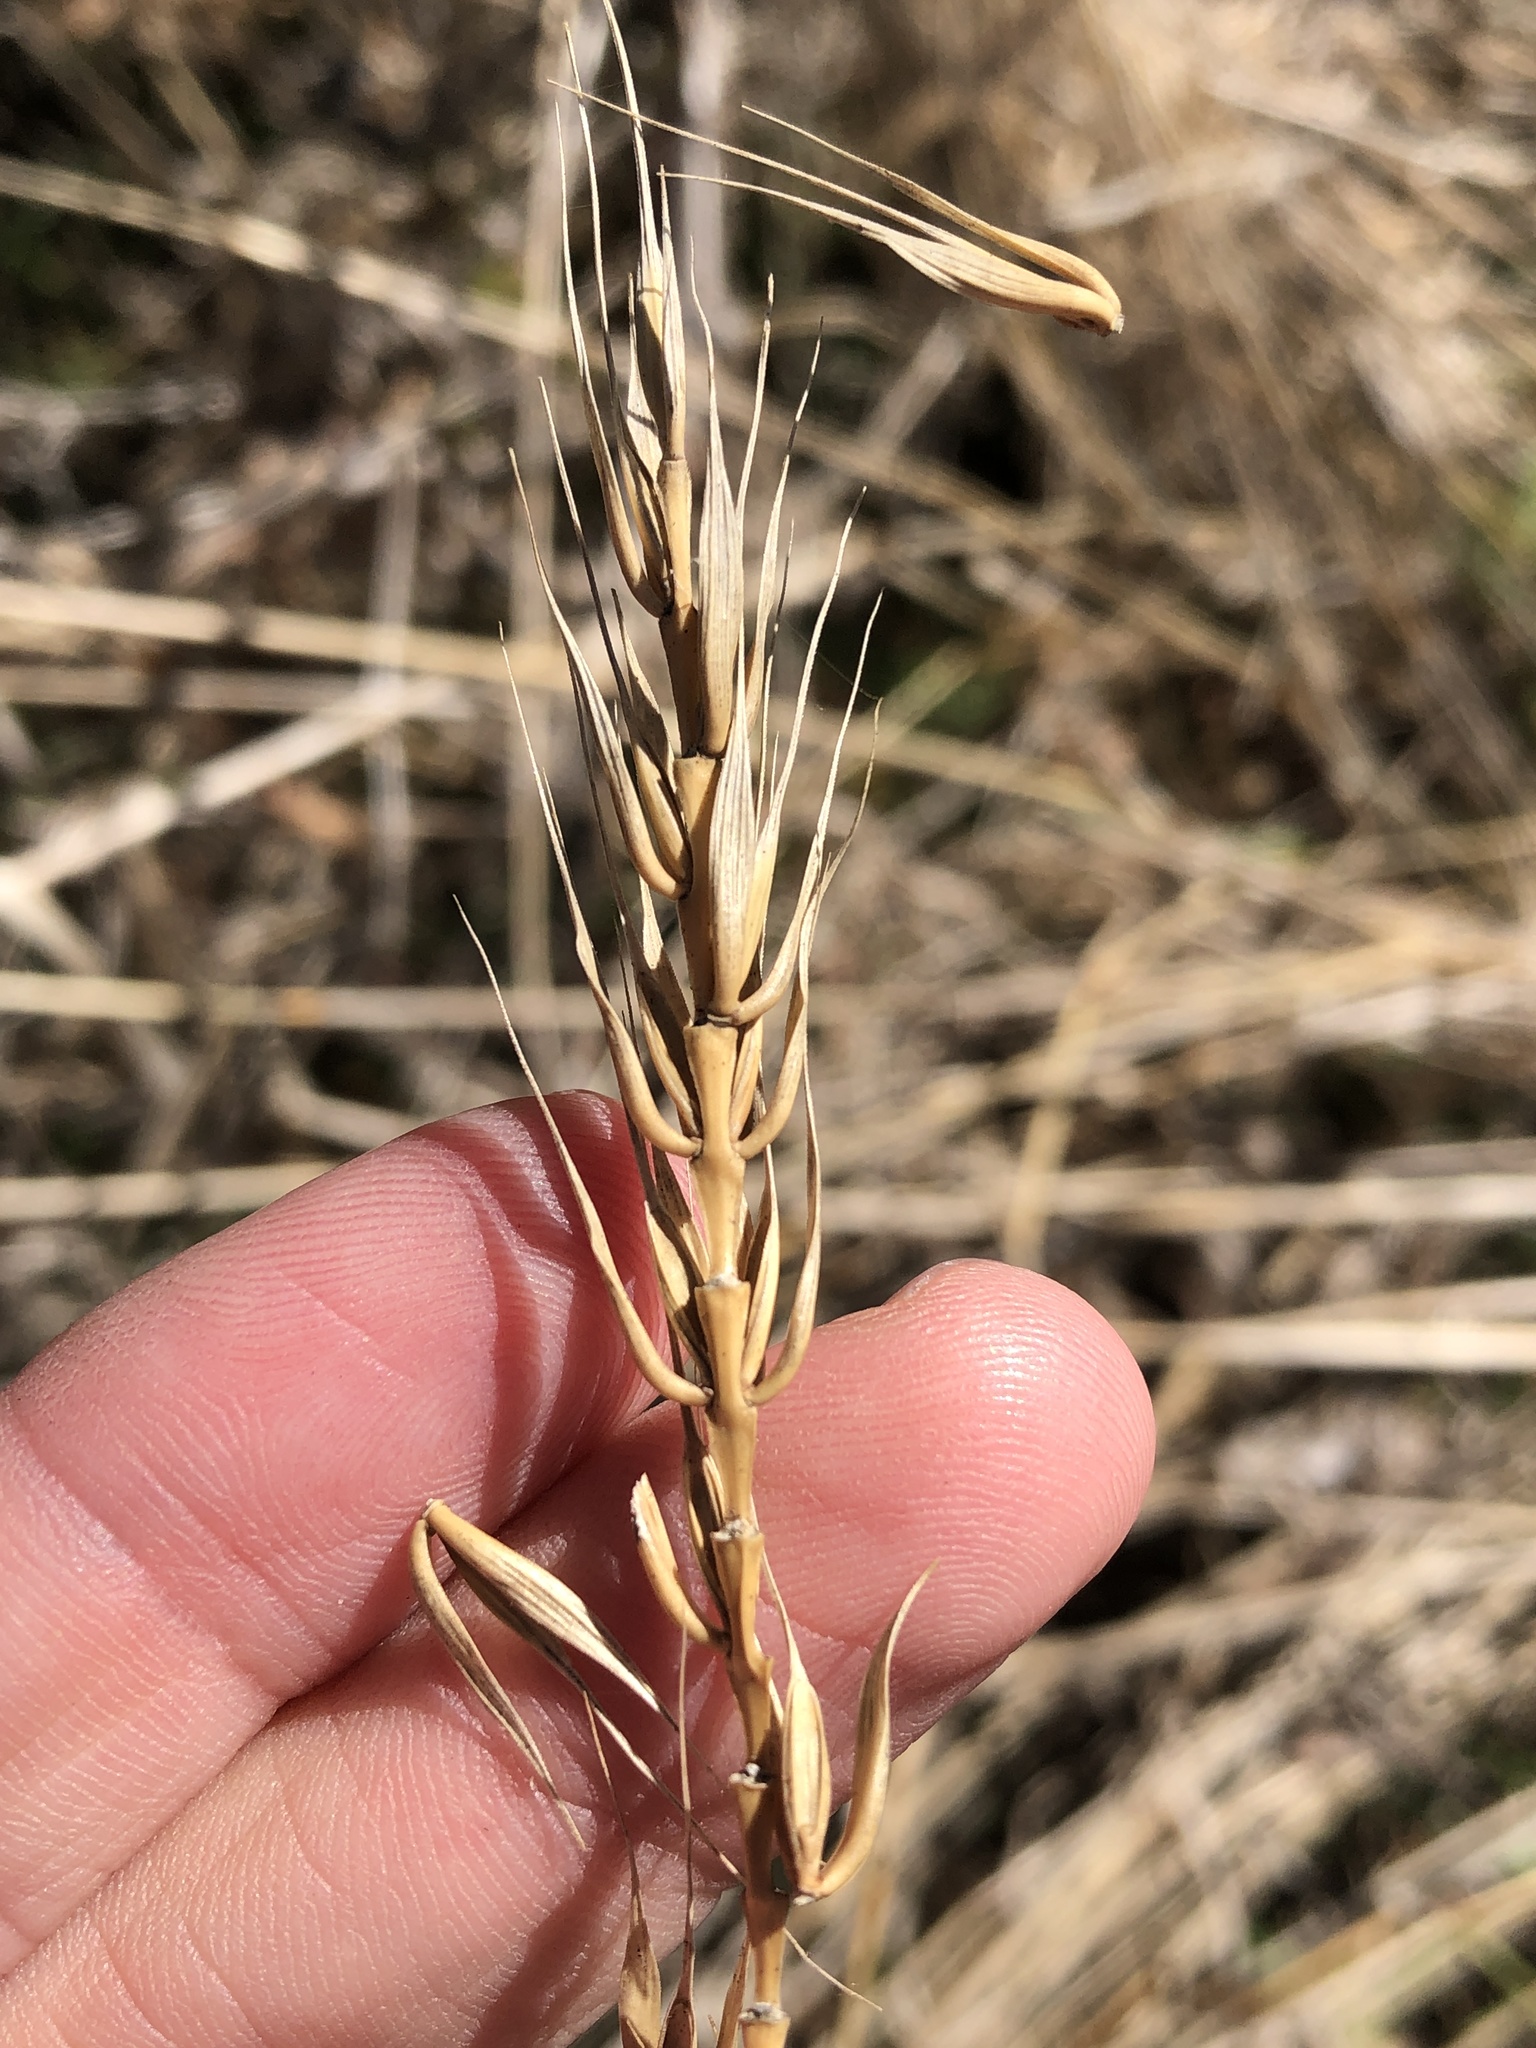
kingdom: Plantae
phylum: Tracheophyta
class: Liliopsida
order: Poales
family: Poaceae
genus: Elymus
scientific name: Elymus virginicus
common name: Common eastern wildrye
